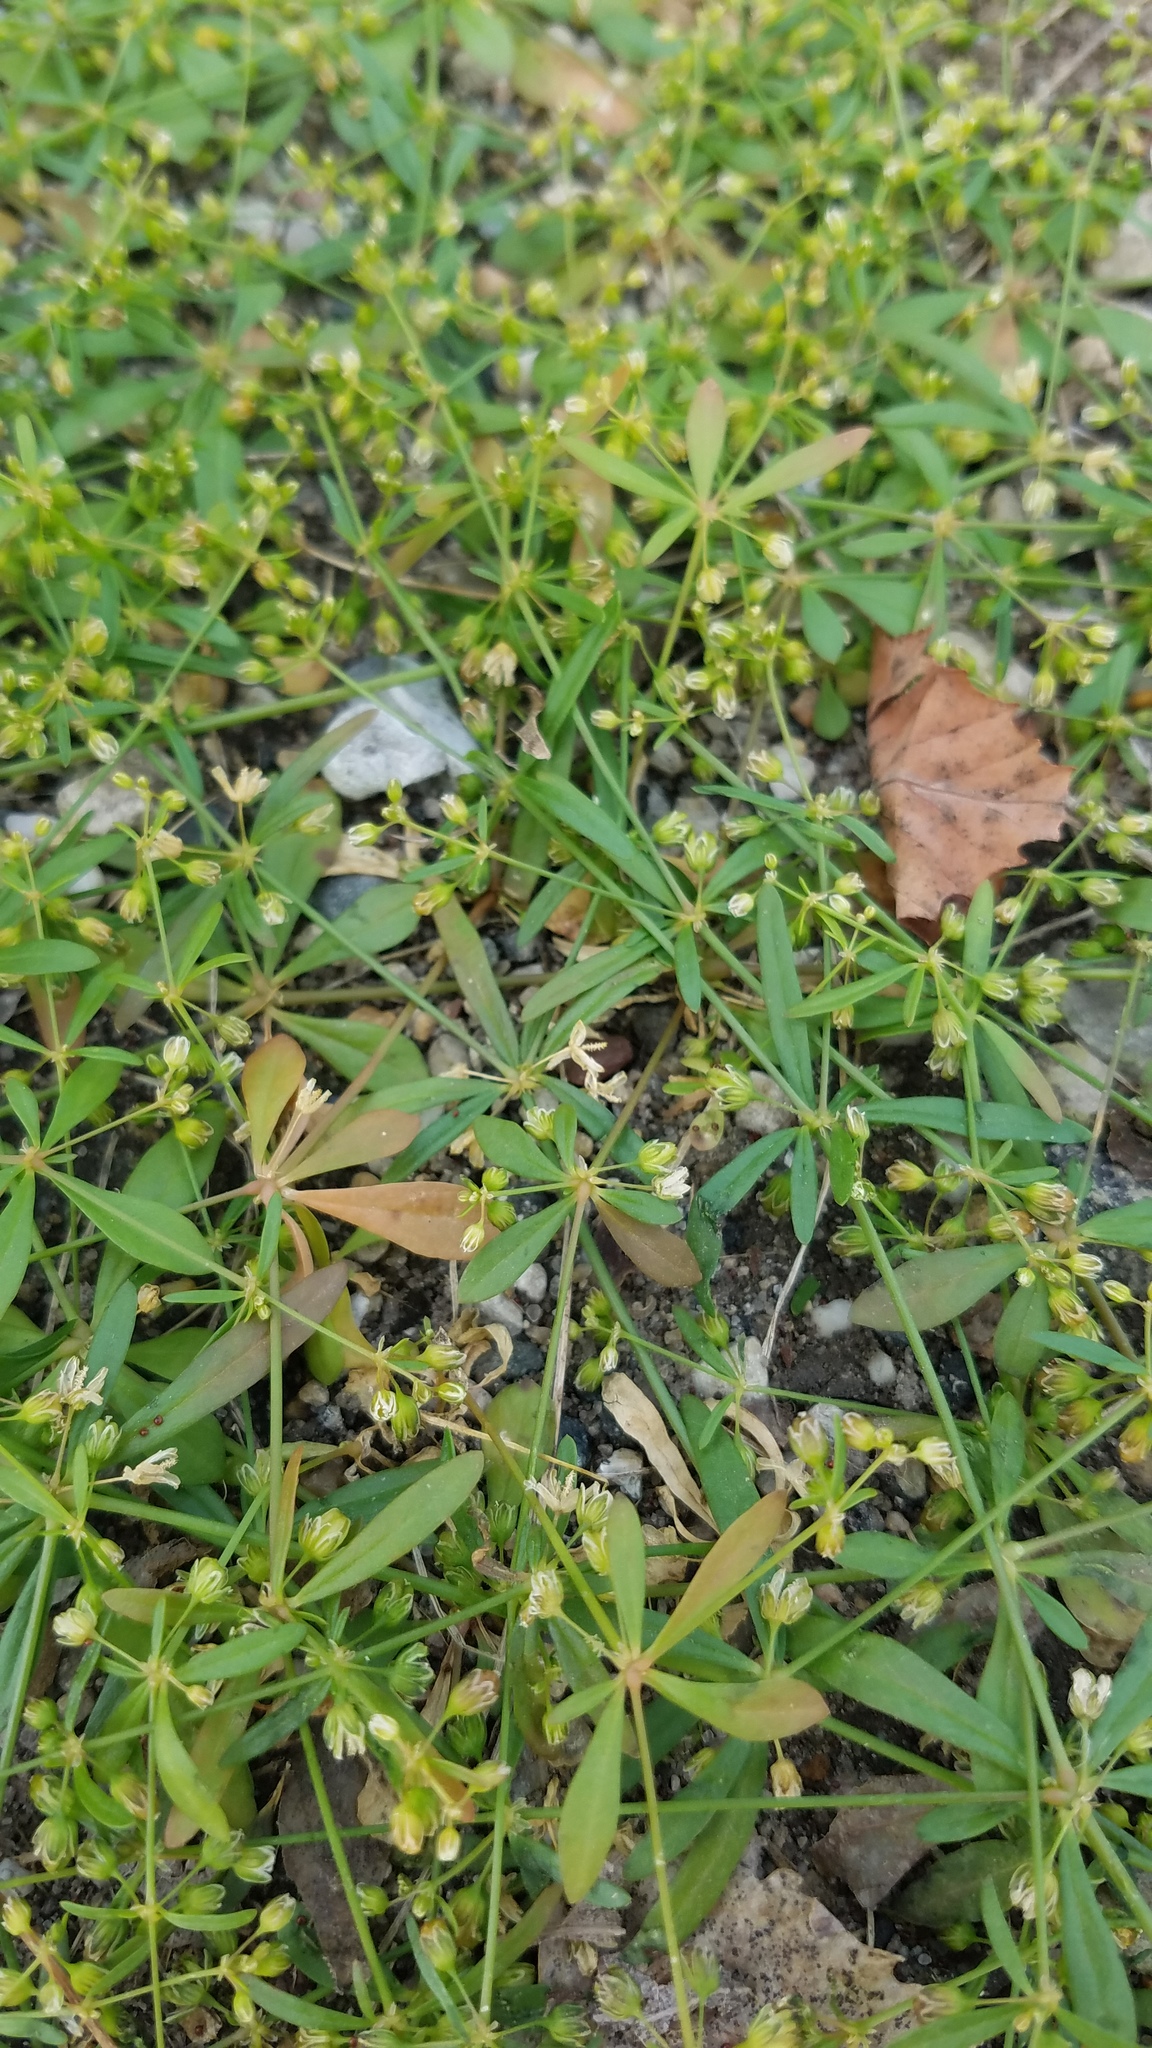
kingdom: Plantae
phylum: Tracheophyta
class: Magnoliopsida
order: Caryophyllales
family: Molluginaceae
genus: Mollugo
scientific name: Mollugo verticillata
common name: Green carpetweed
